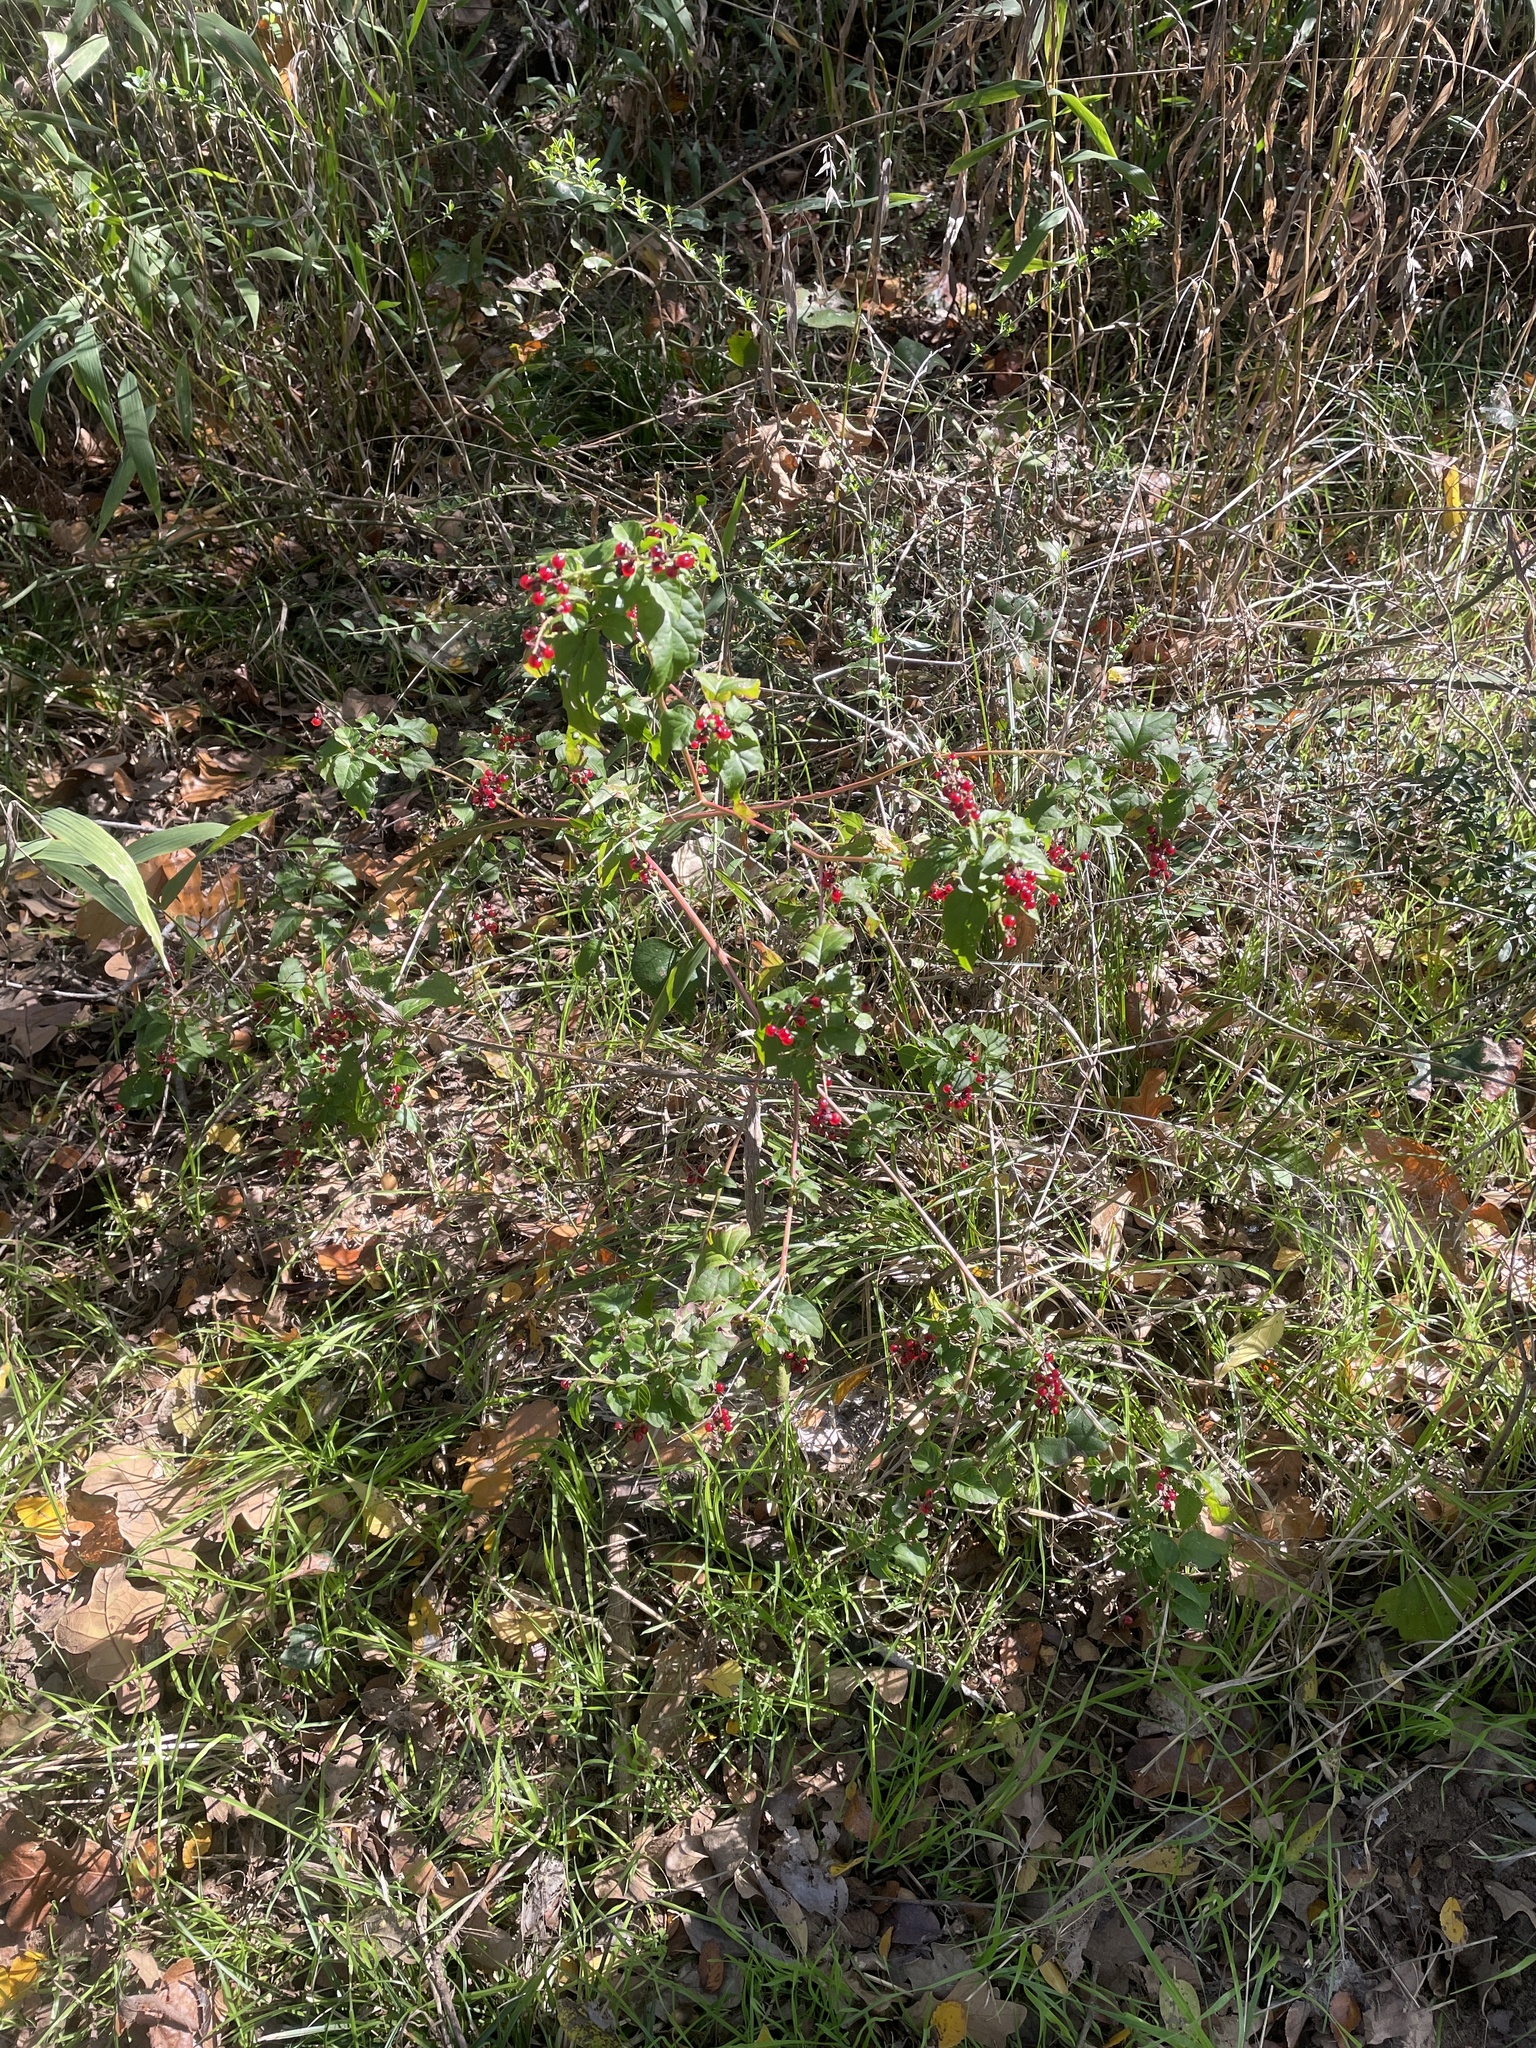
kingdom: Plantae
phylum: Tracheophyta
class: Magnoliopsida
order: Caryophyllales
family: Phytolaccaceae
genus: Rivina
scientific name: Rivina humilis
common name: Rougeplant
